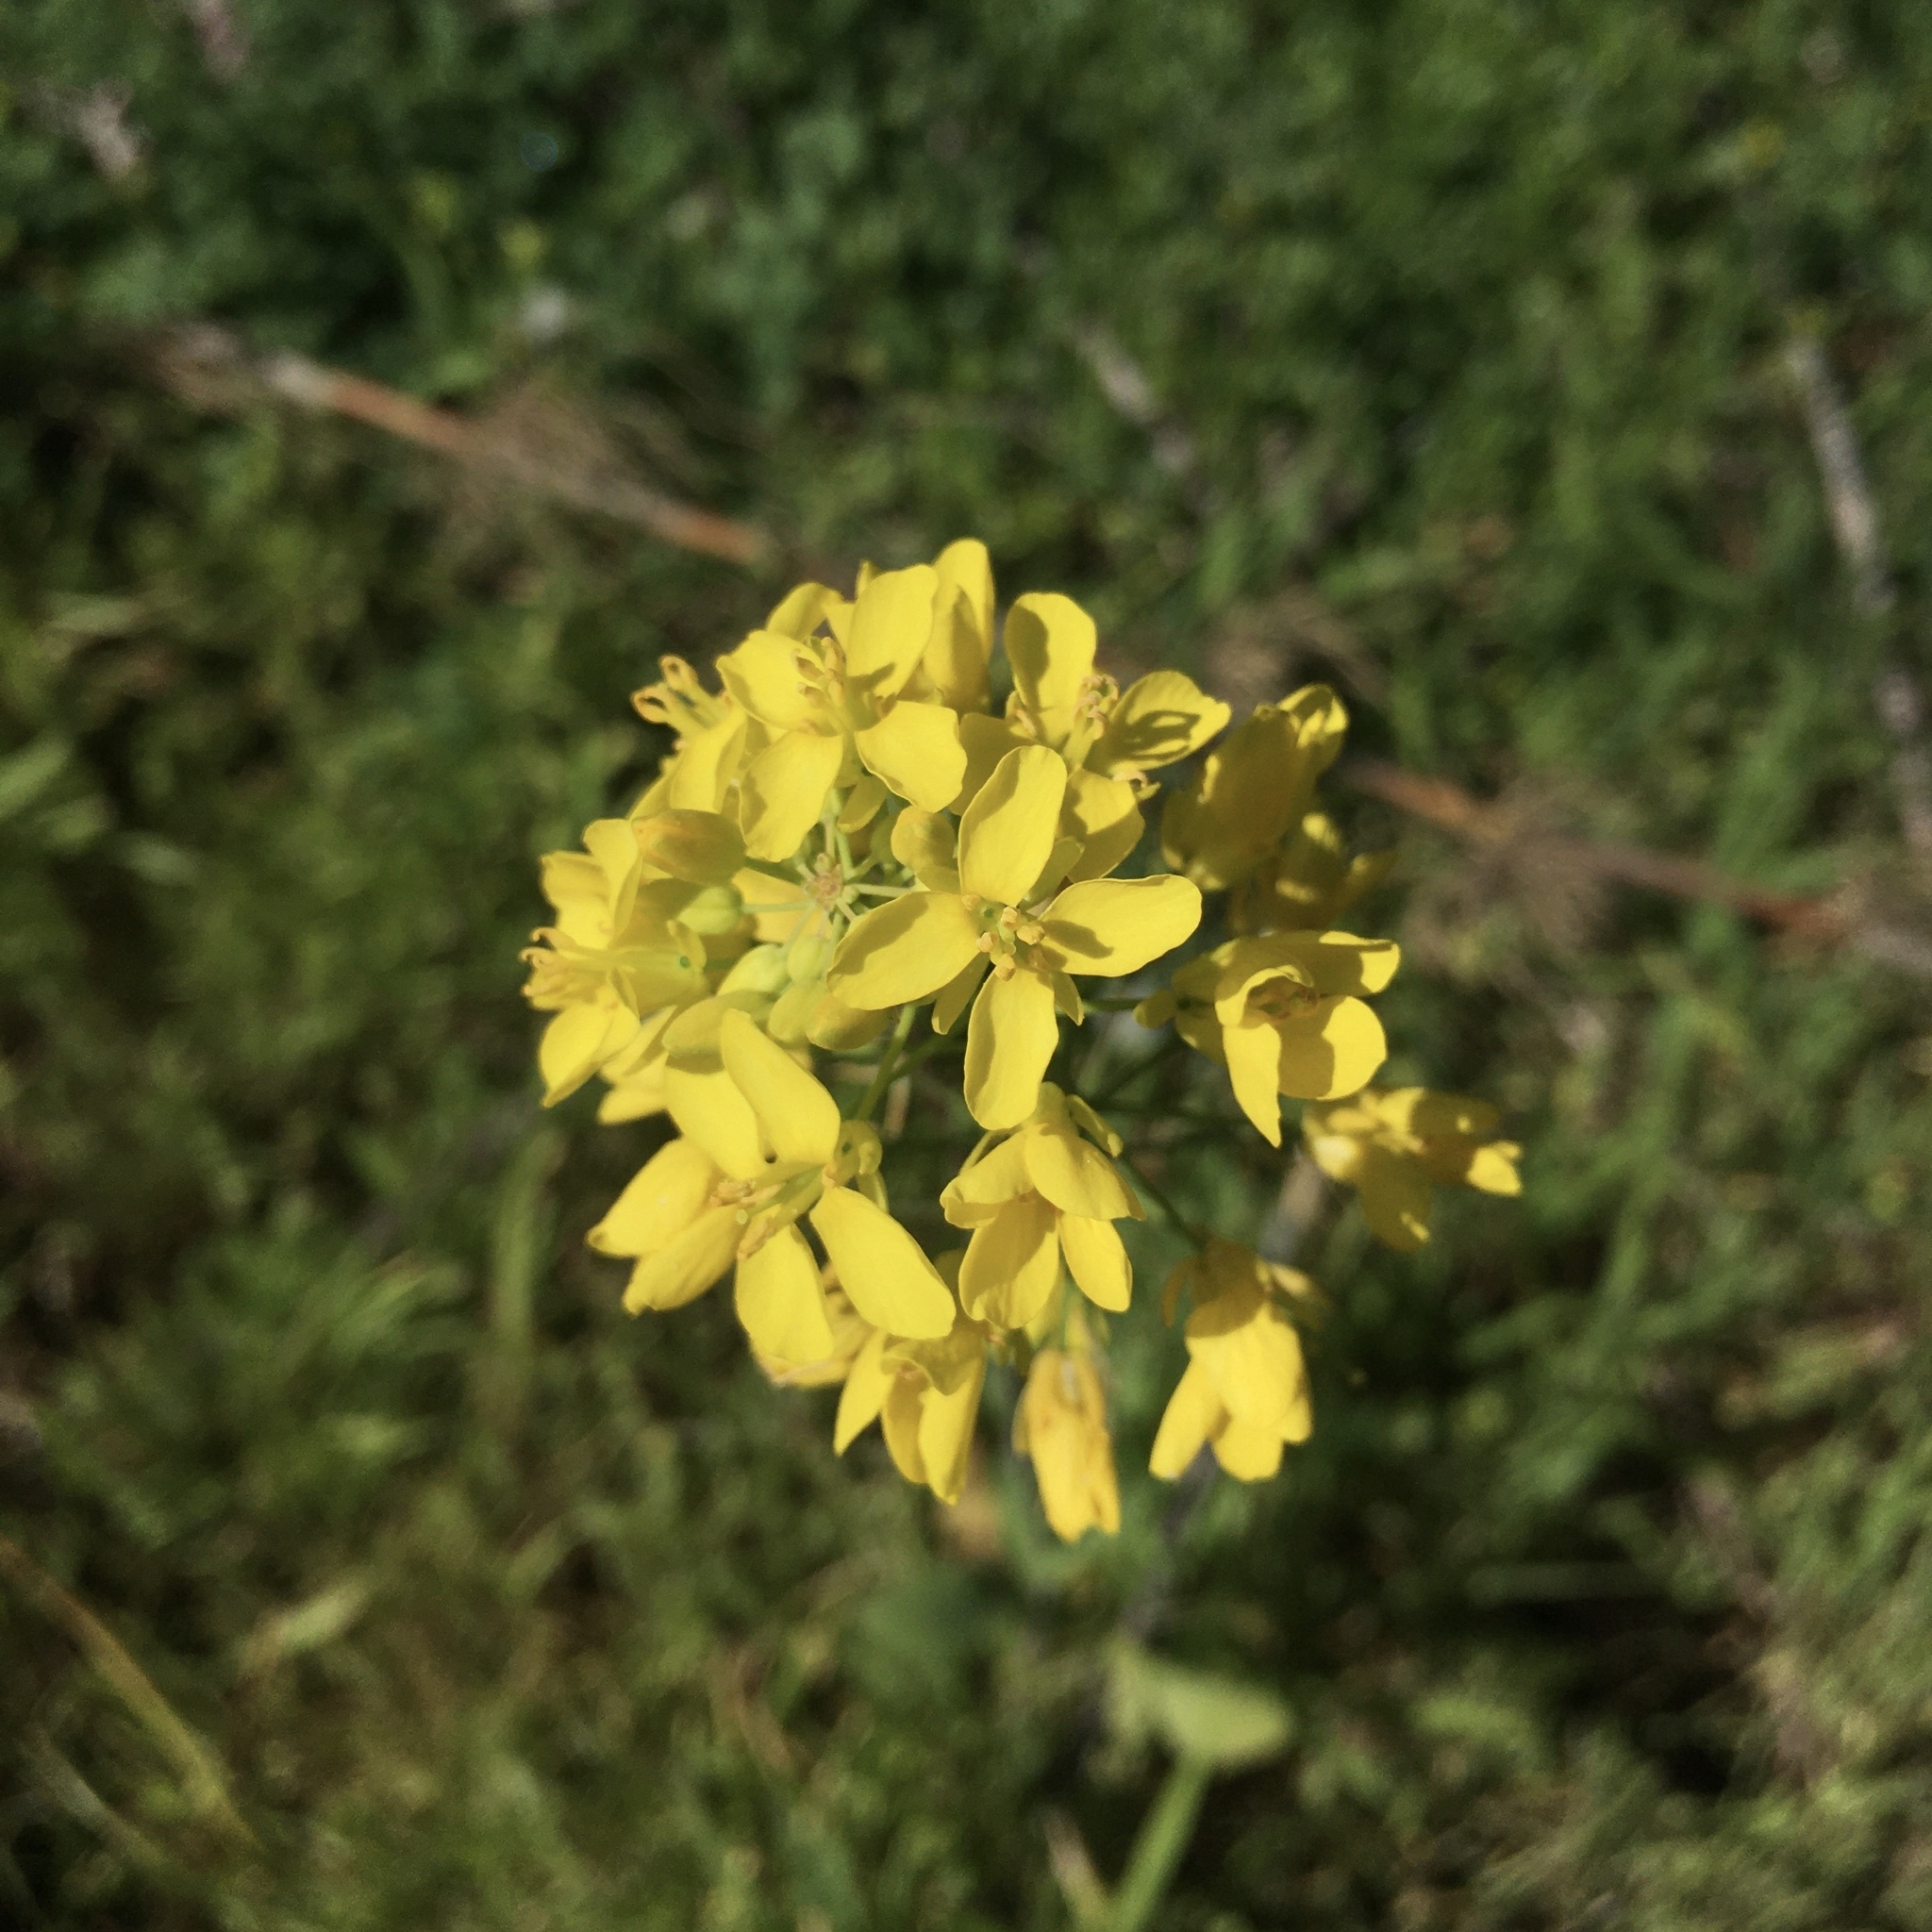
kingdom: Plantae
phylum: Tracheophyta
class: Magnoliopsida
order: Brassicales
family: Brassicaceae
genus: Brassica
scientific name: Brassica rapa
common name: Field mustard
